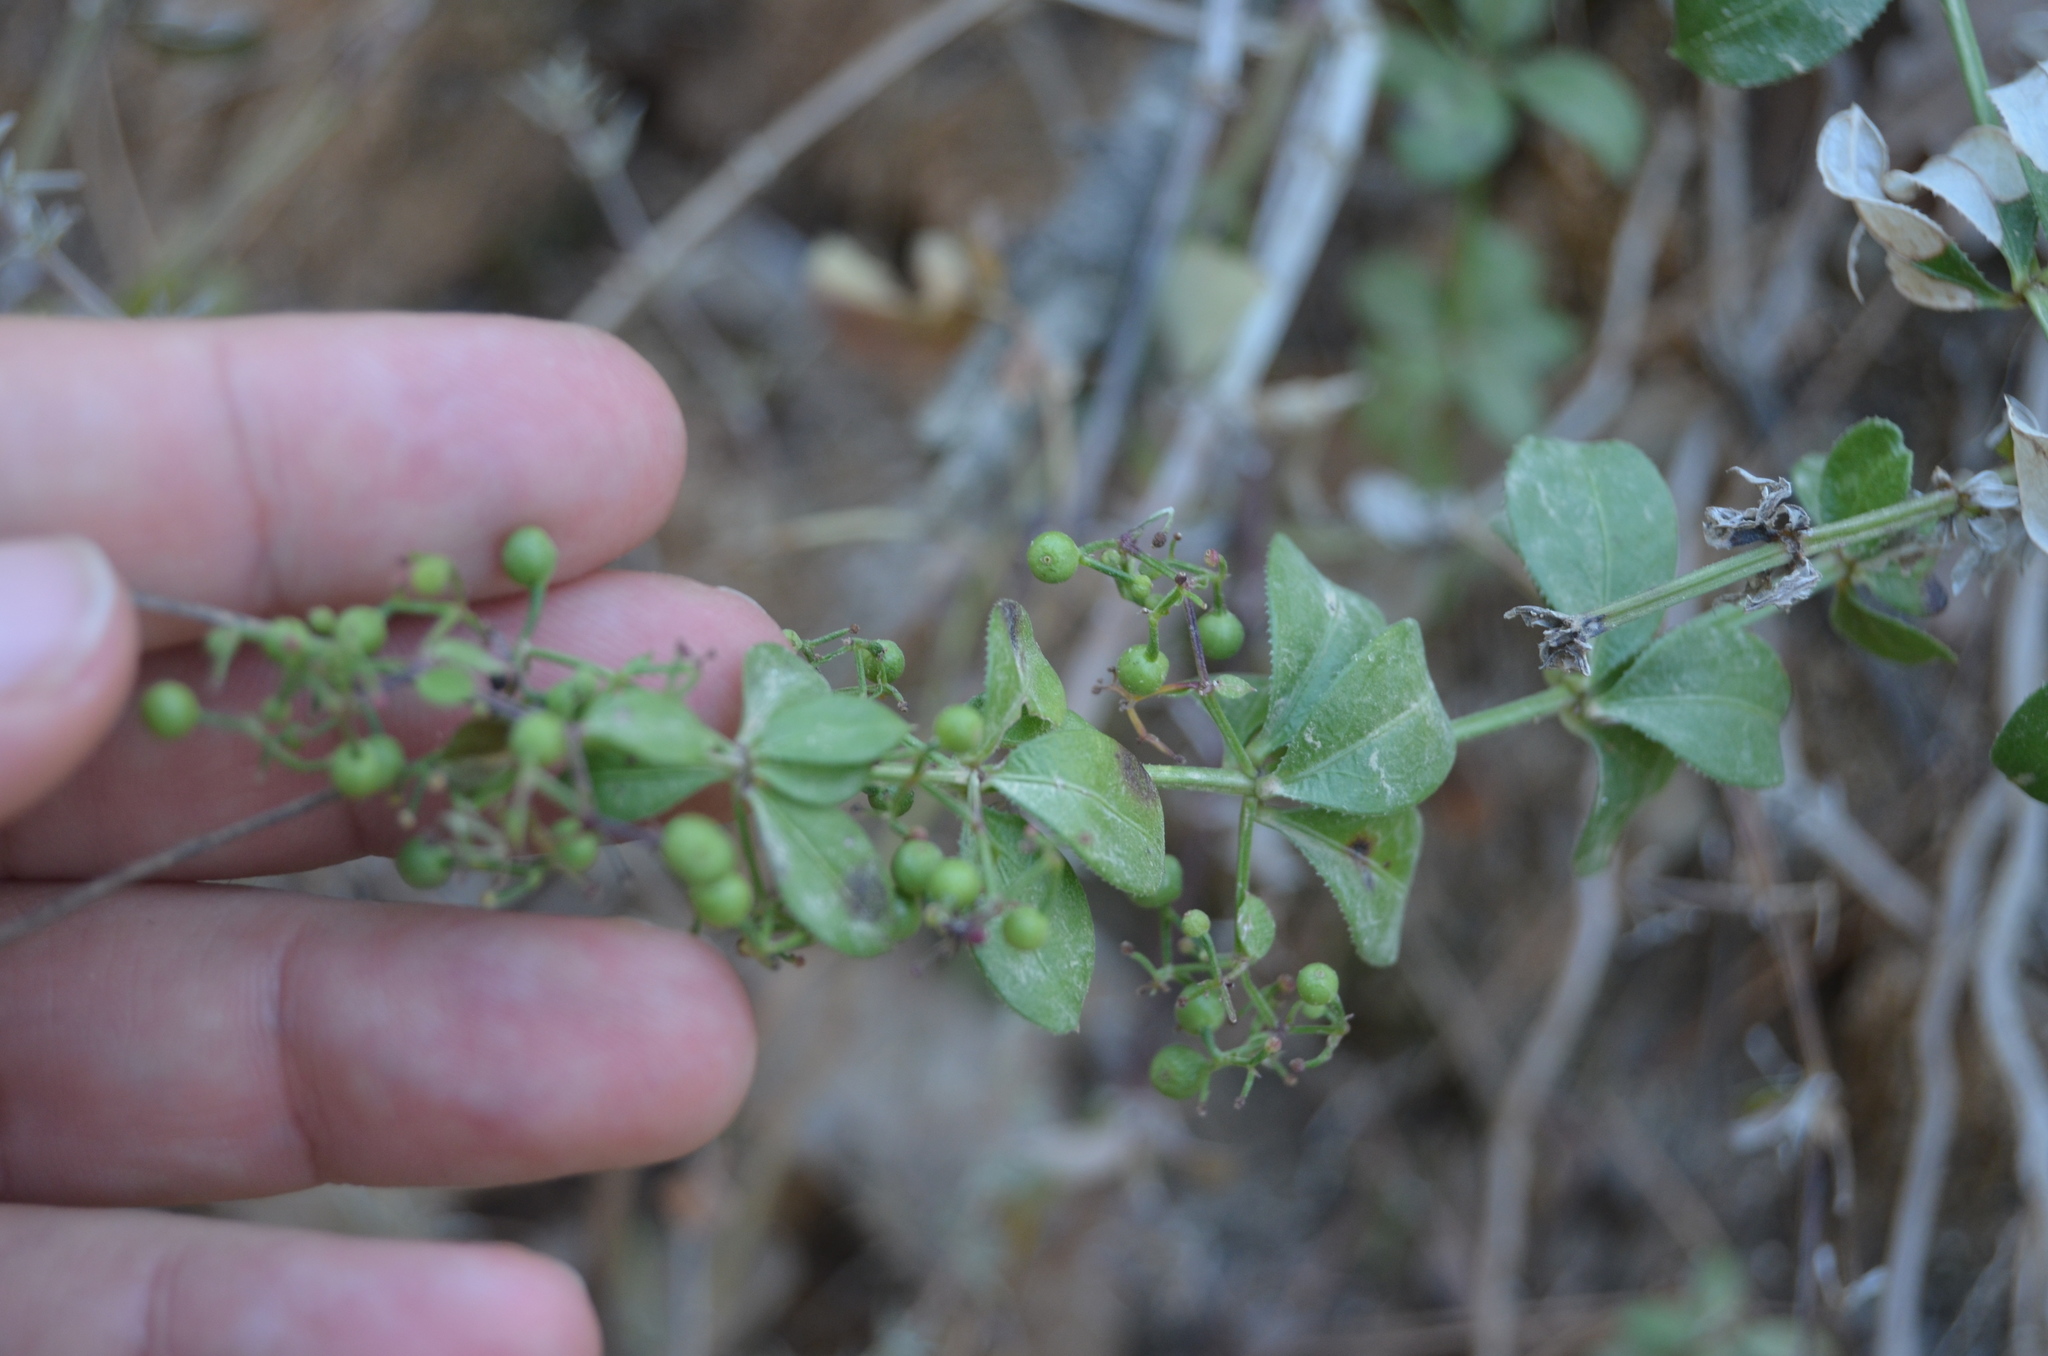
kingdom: Plantae
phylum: Tracheophyta
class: Magnoliopsida
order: Gentianales
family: Rubiaceae
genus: Rubia
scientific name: Rubia peregrina
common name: Wild madder
